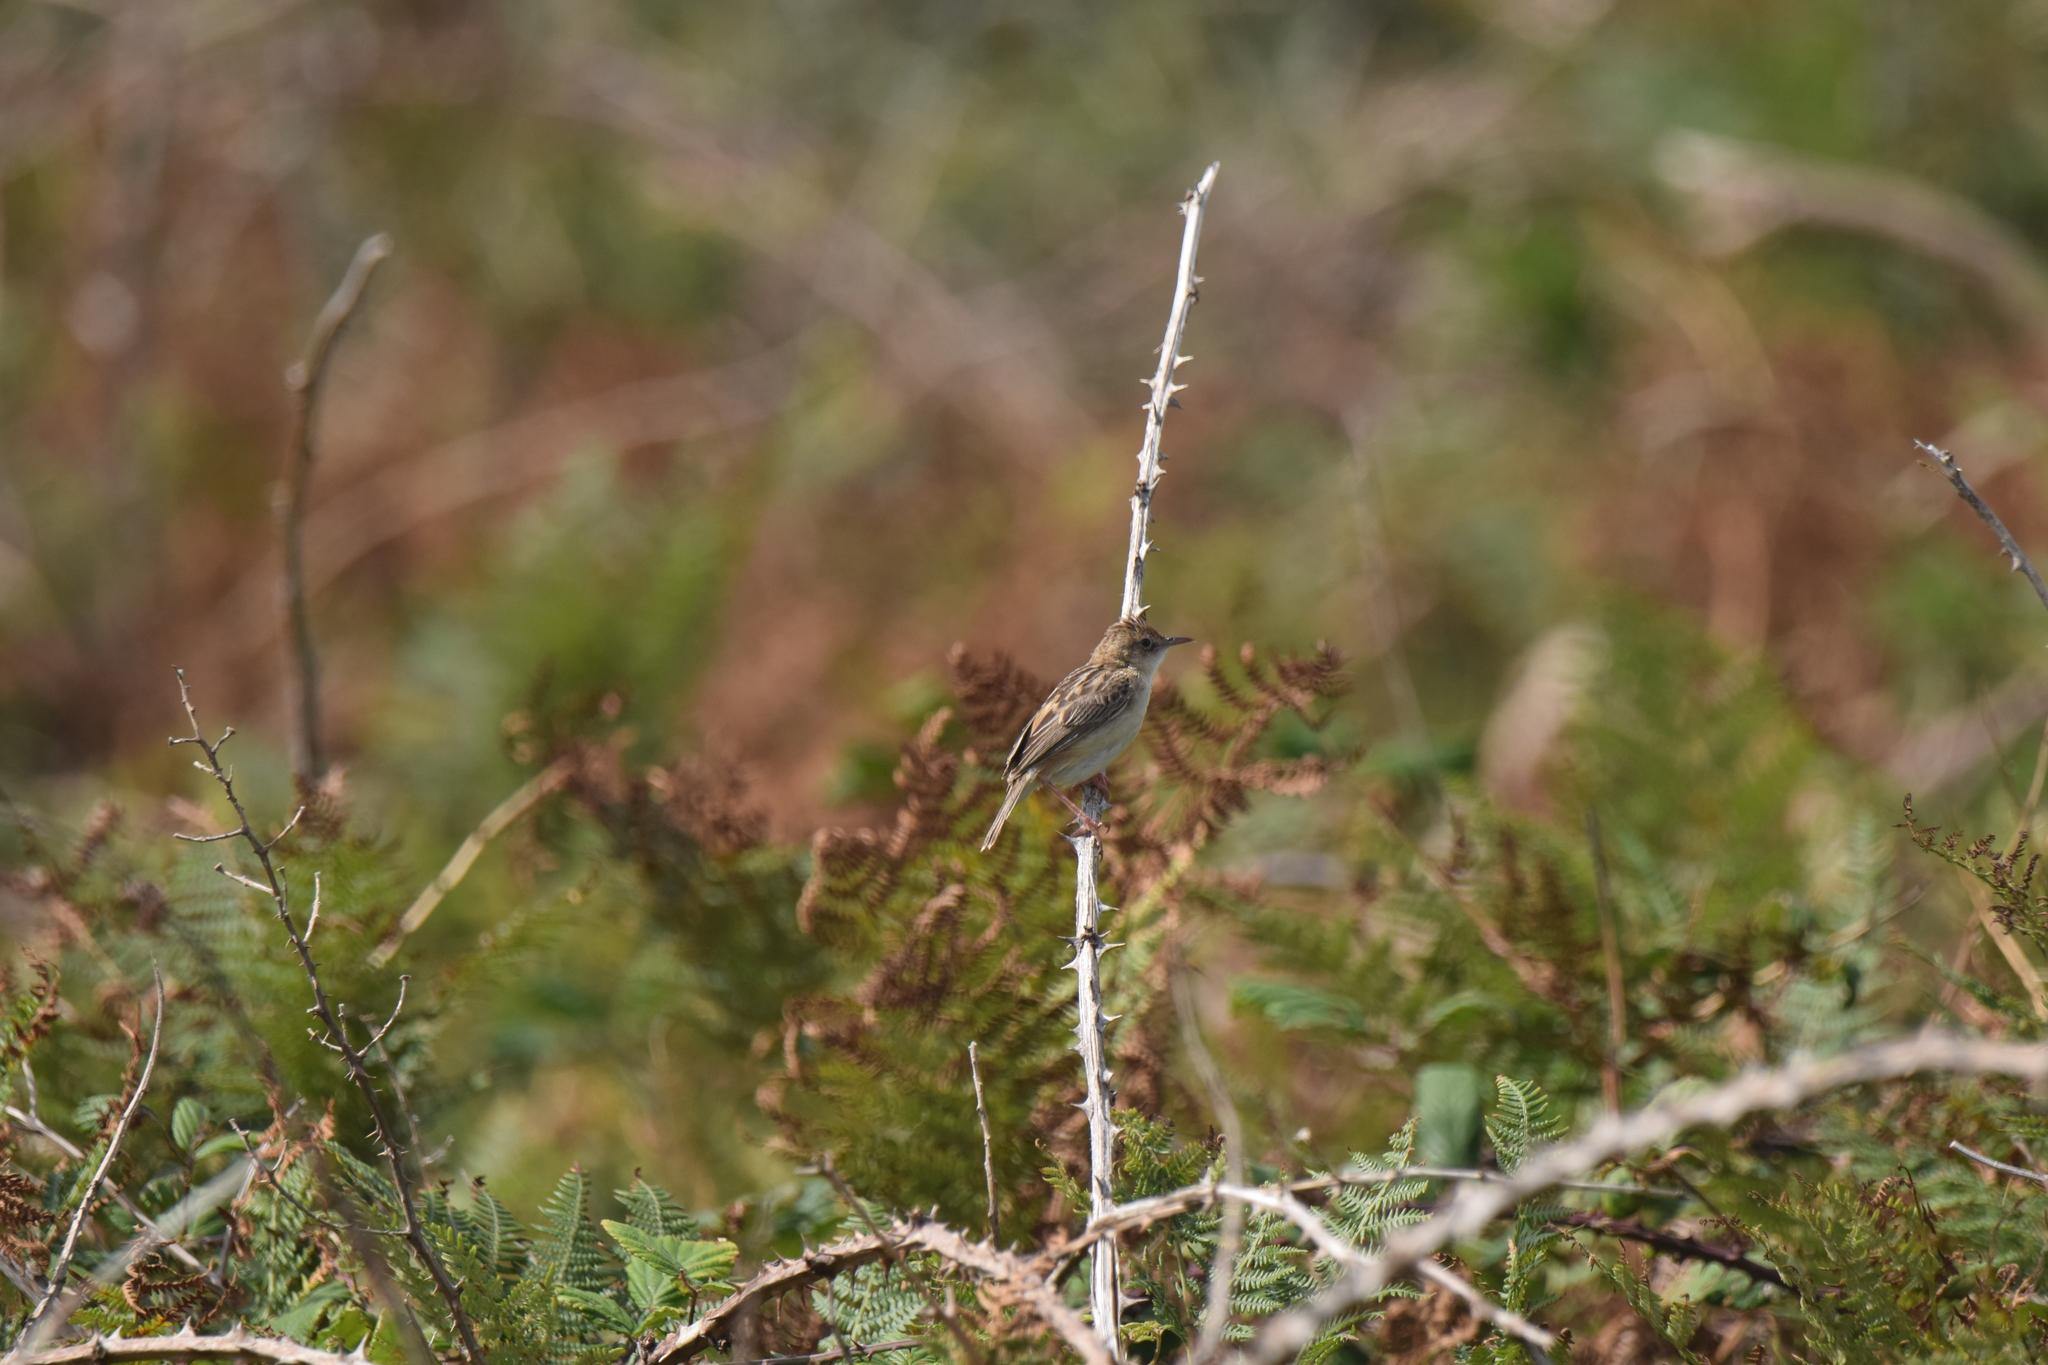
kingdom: Animalia
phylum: Chordata
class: Aves
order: Passeriformes
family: Cisticolidae
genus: Cisticola
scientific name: Cisticola juncidis
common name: Zitting cisticola
